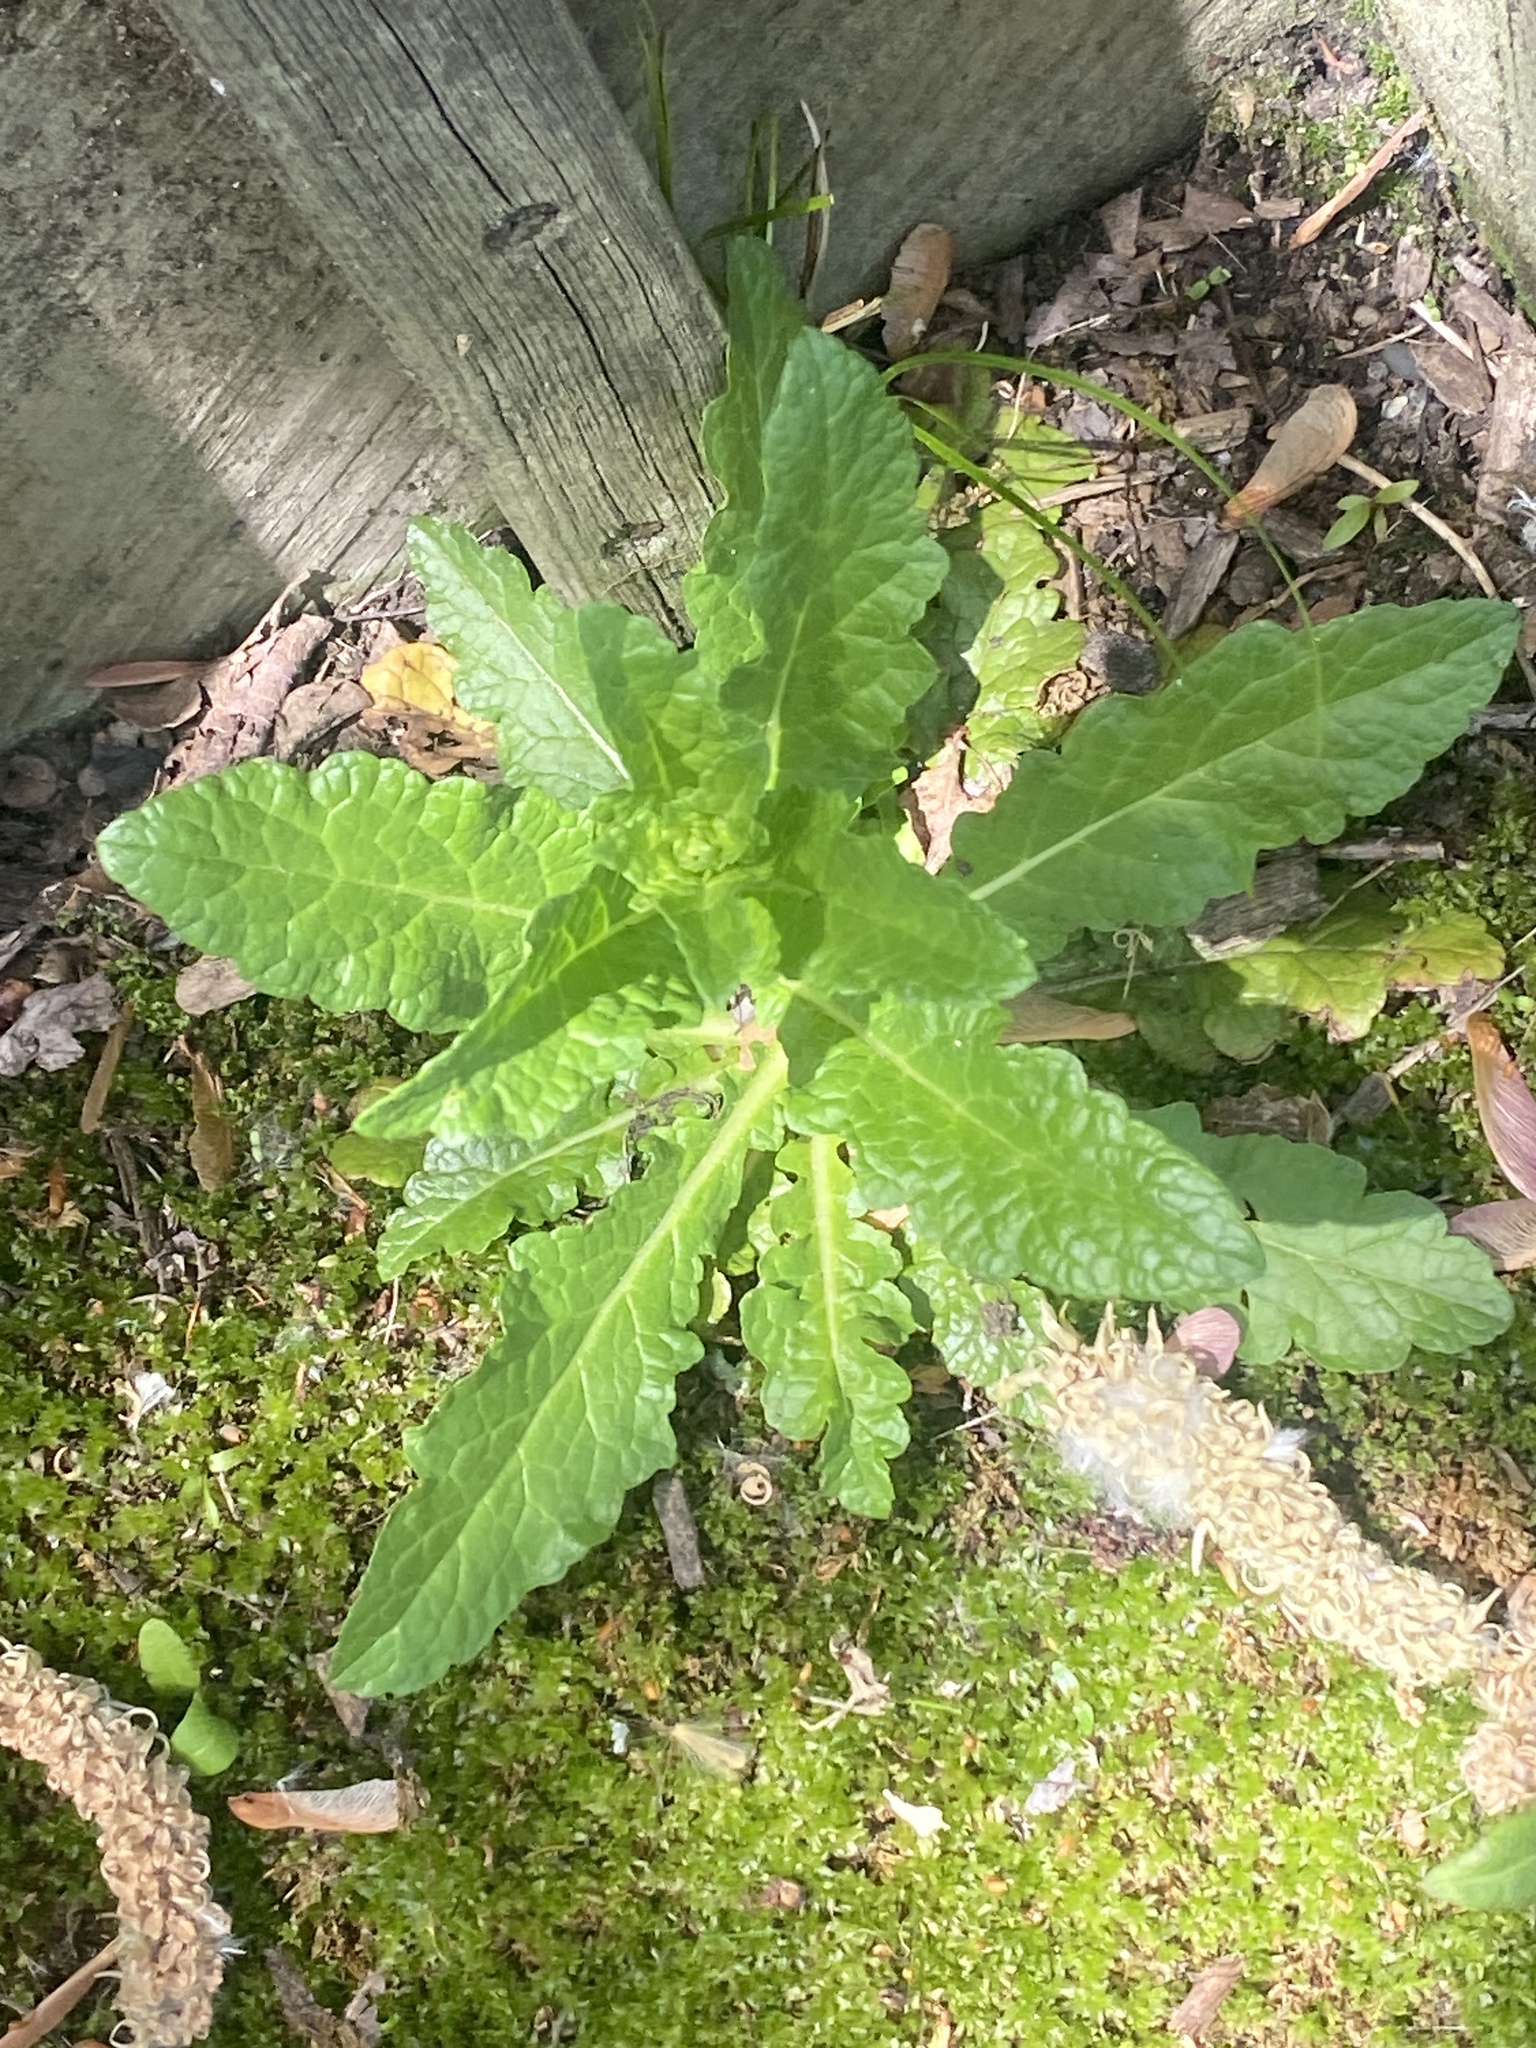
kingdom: Plantae
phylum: Tracheophyta
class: Magnoliopsida
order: Lamiales
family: Scrophulariaceae
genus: Verbascum
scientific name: Verbascum blattaria
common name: Moth mullein
